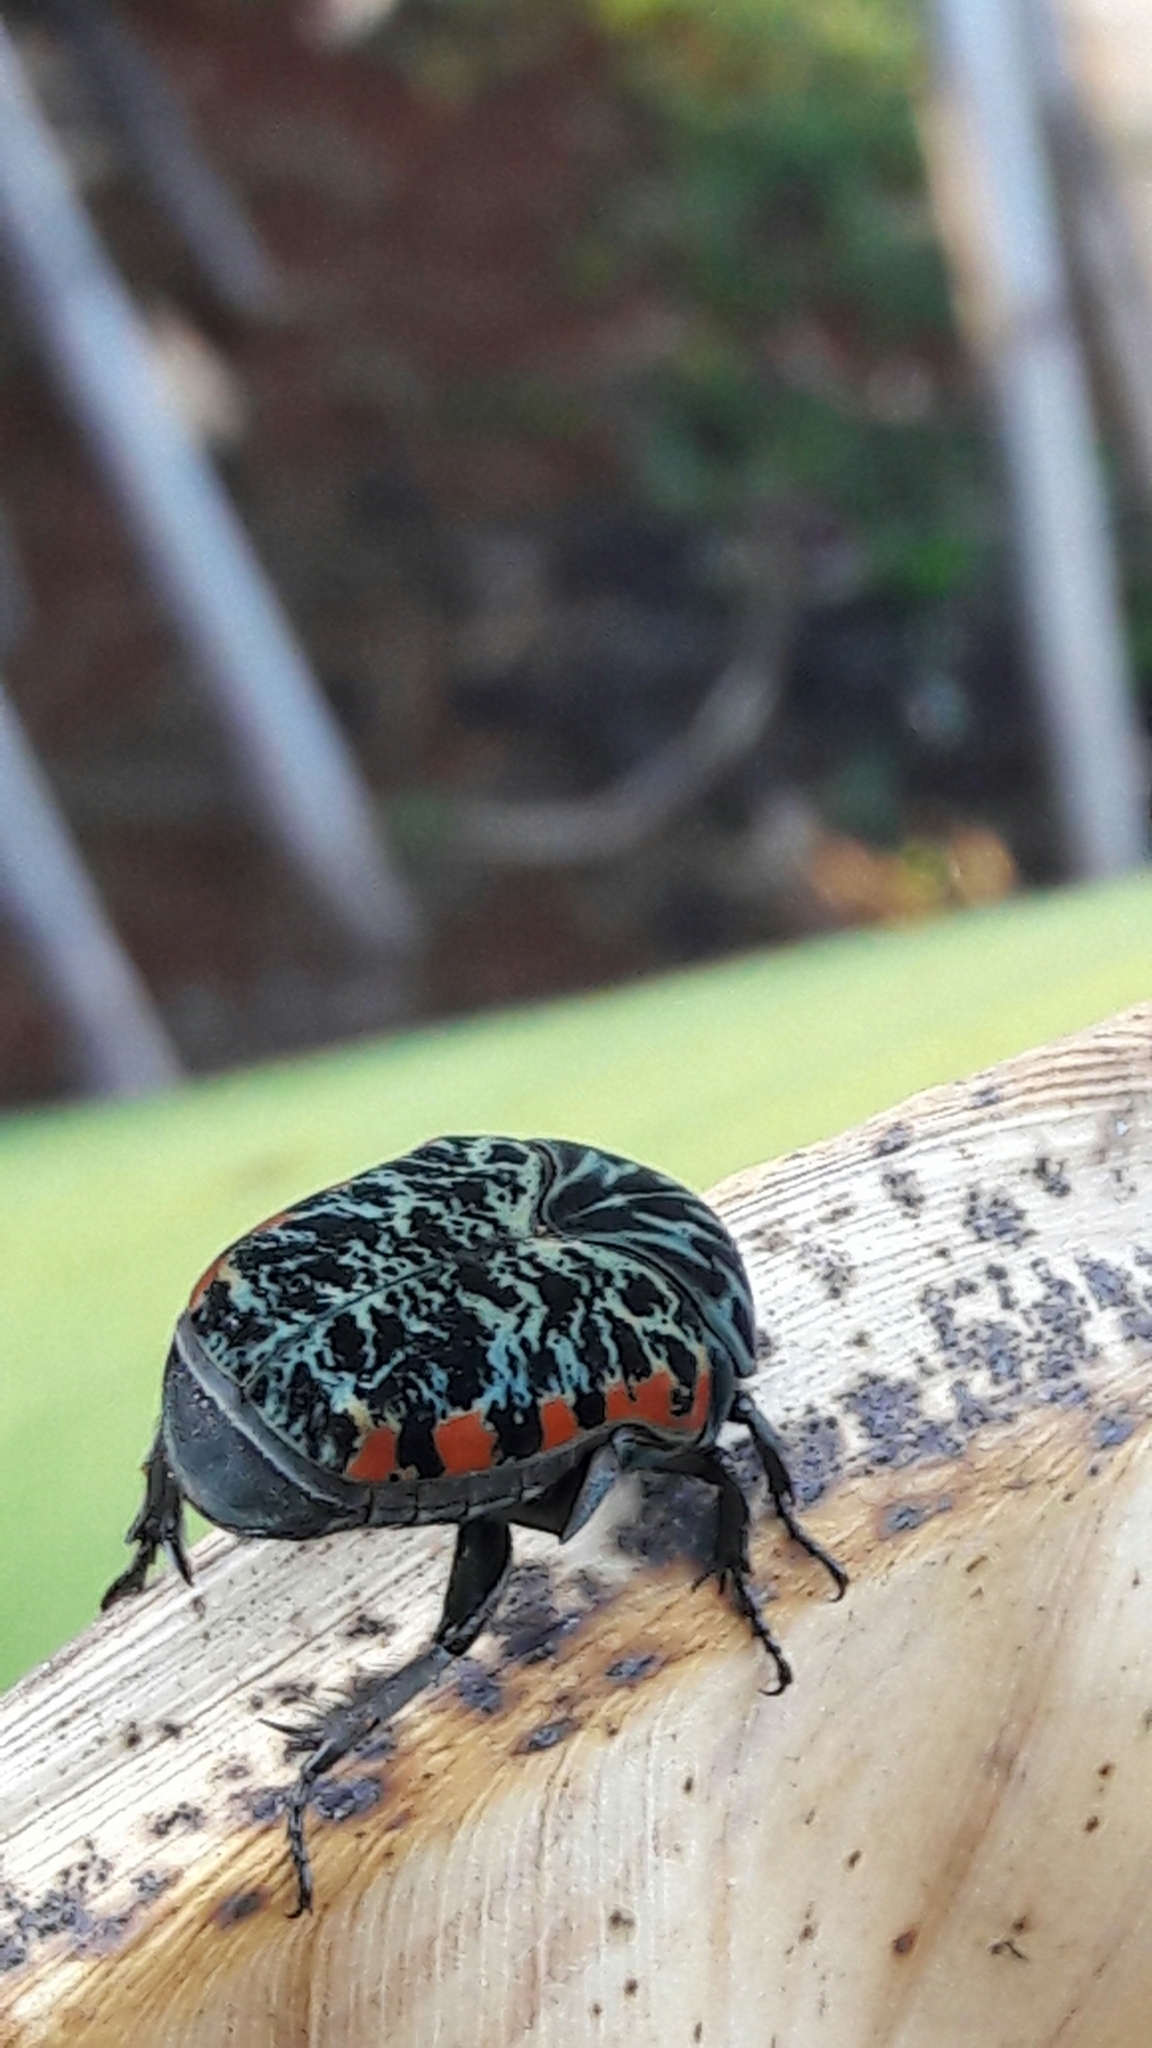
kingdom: Animalia
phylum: Arthropoda
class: Insecta
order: Coleoptera
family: Scarabaeidae
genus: Gymnetis
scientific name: Gymnetis rufilatris
